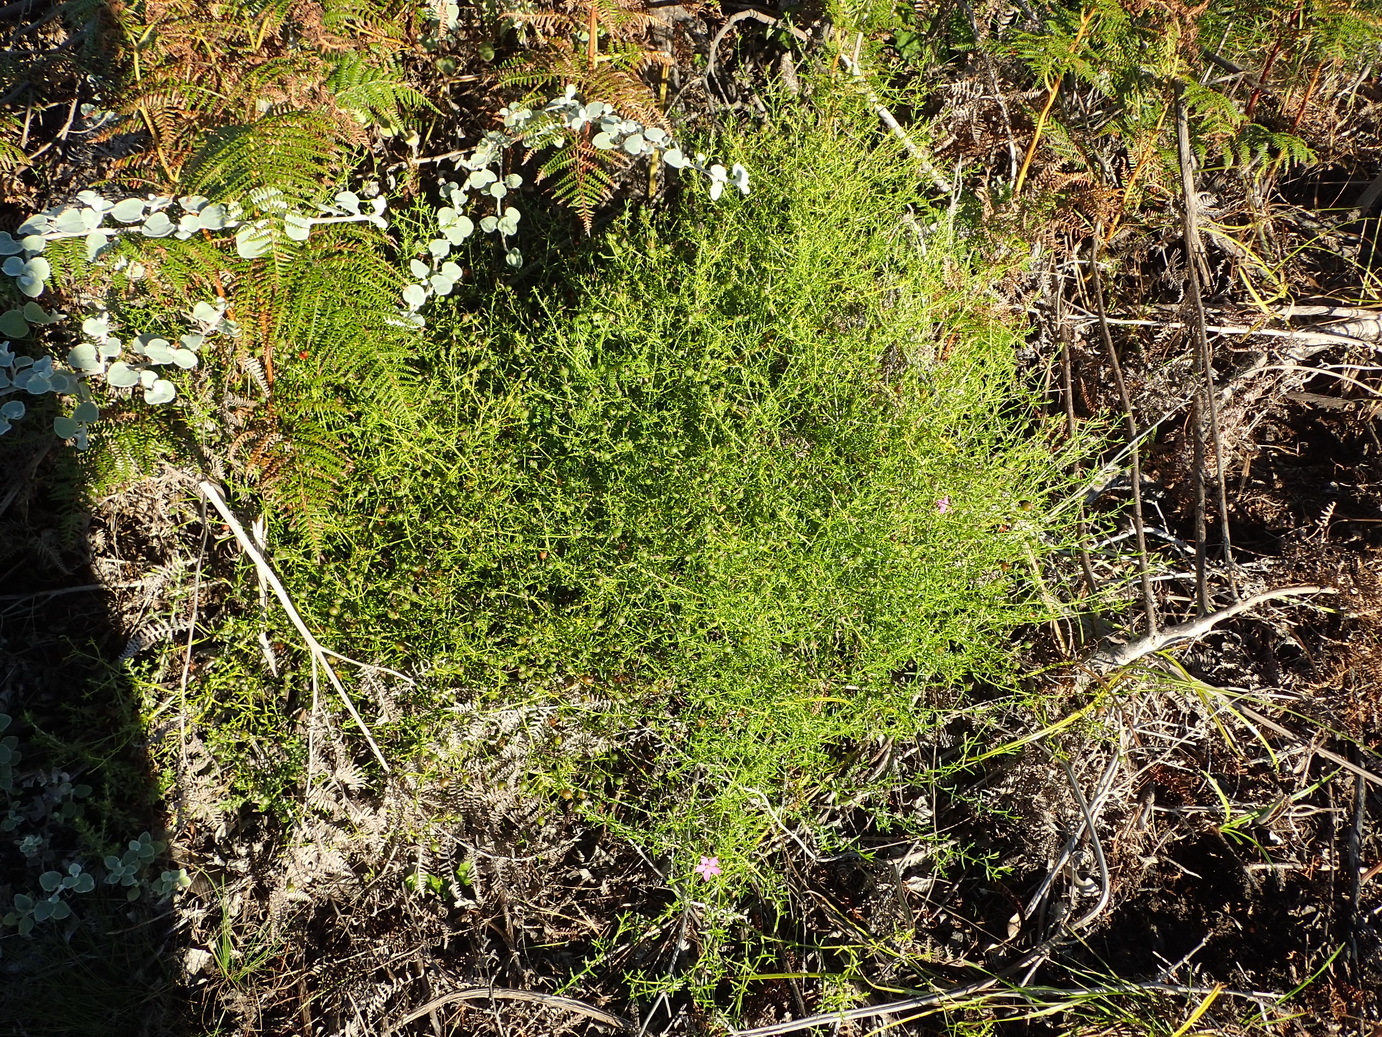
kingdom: Plantae
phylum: Tracheophyta
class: Magnoliopsida
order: Gentianales
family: Gentianaceae
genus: Chironia
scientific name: Chironia baccifera
